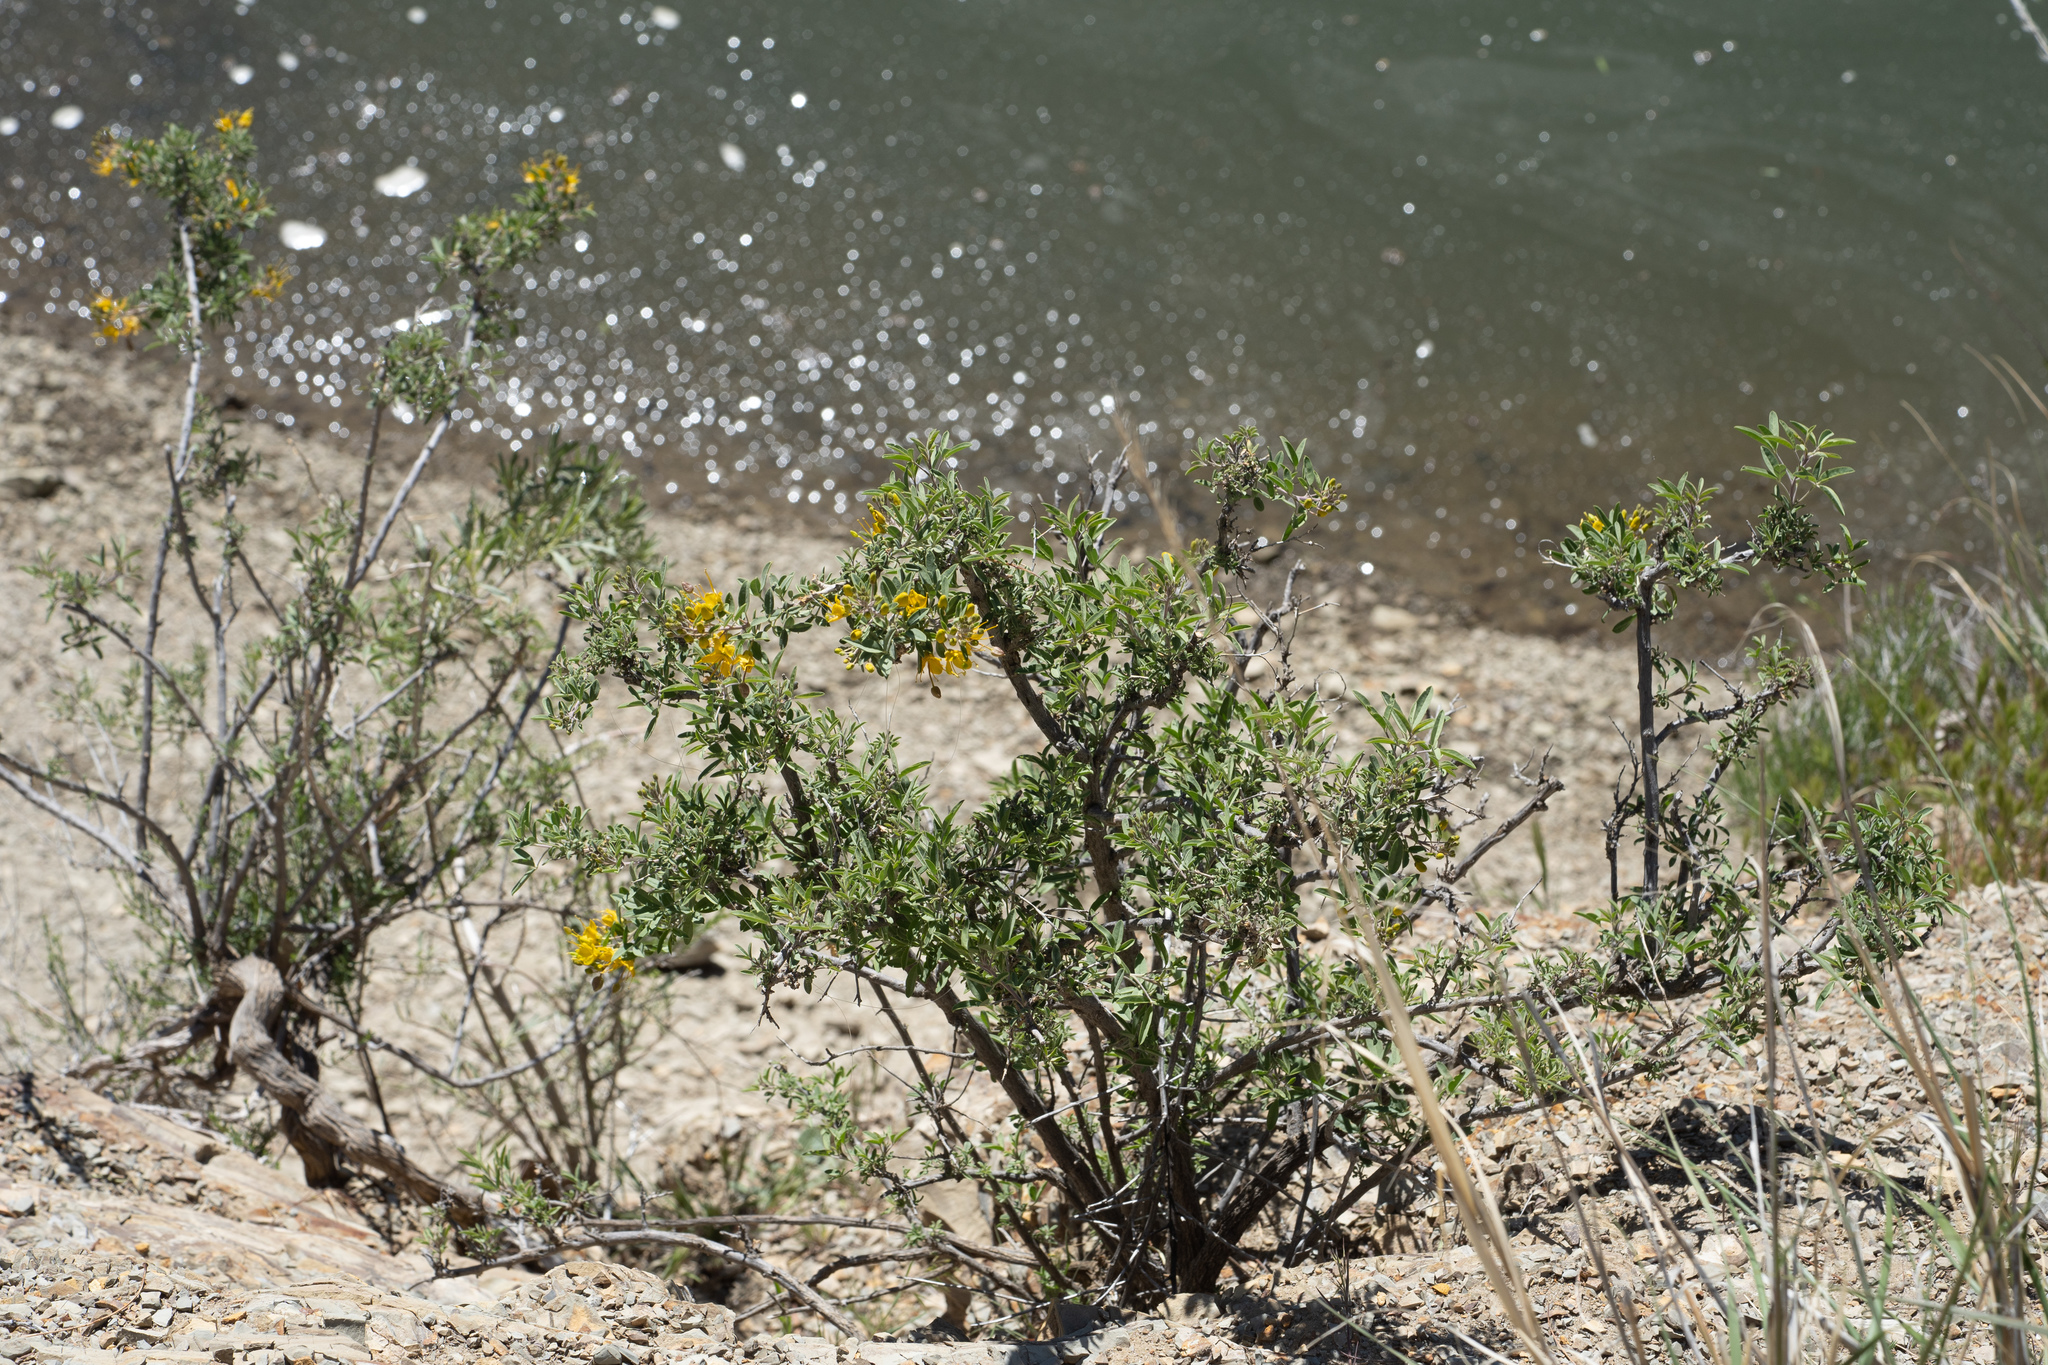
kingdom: Plantae
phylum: Tracheophyta
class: Magnoliopsida
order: Brassicales
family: Cleomaceae
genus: Cleomella
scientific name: Cleomella arborea
